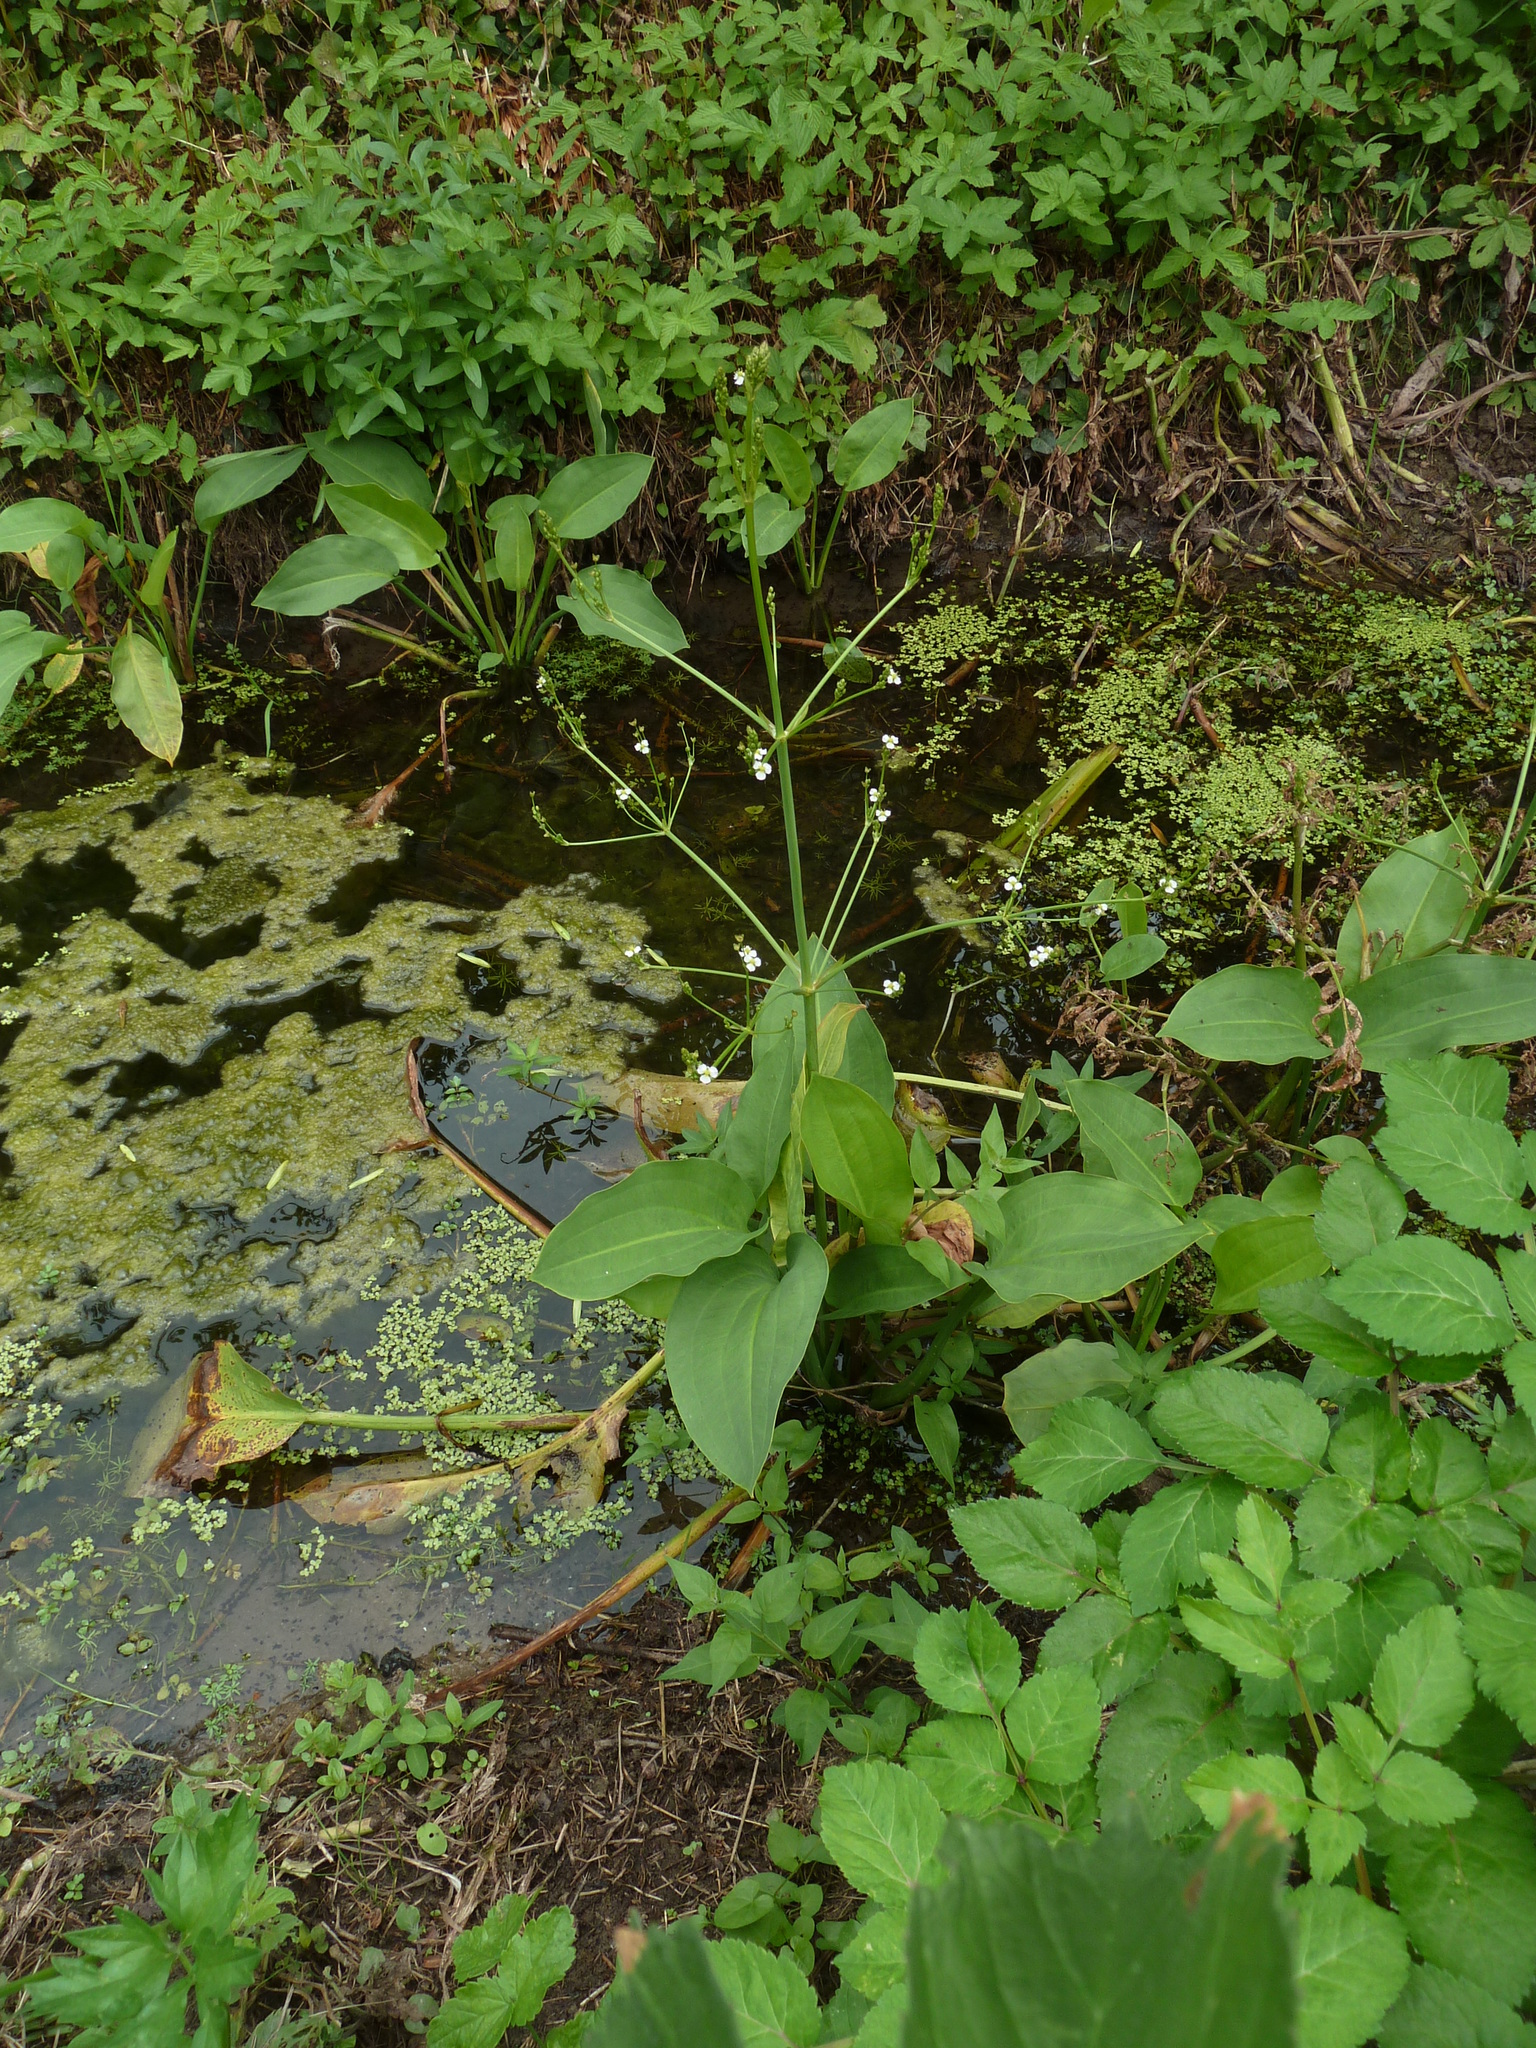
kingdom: Plantae
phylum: Tracheophyta
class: Liliopsida
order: Alismatales
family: Alismataceae
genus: Alisma
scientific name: Alisma plantago-aquatica
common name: Water-plantain
